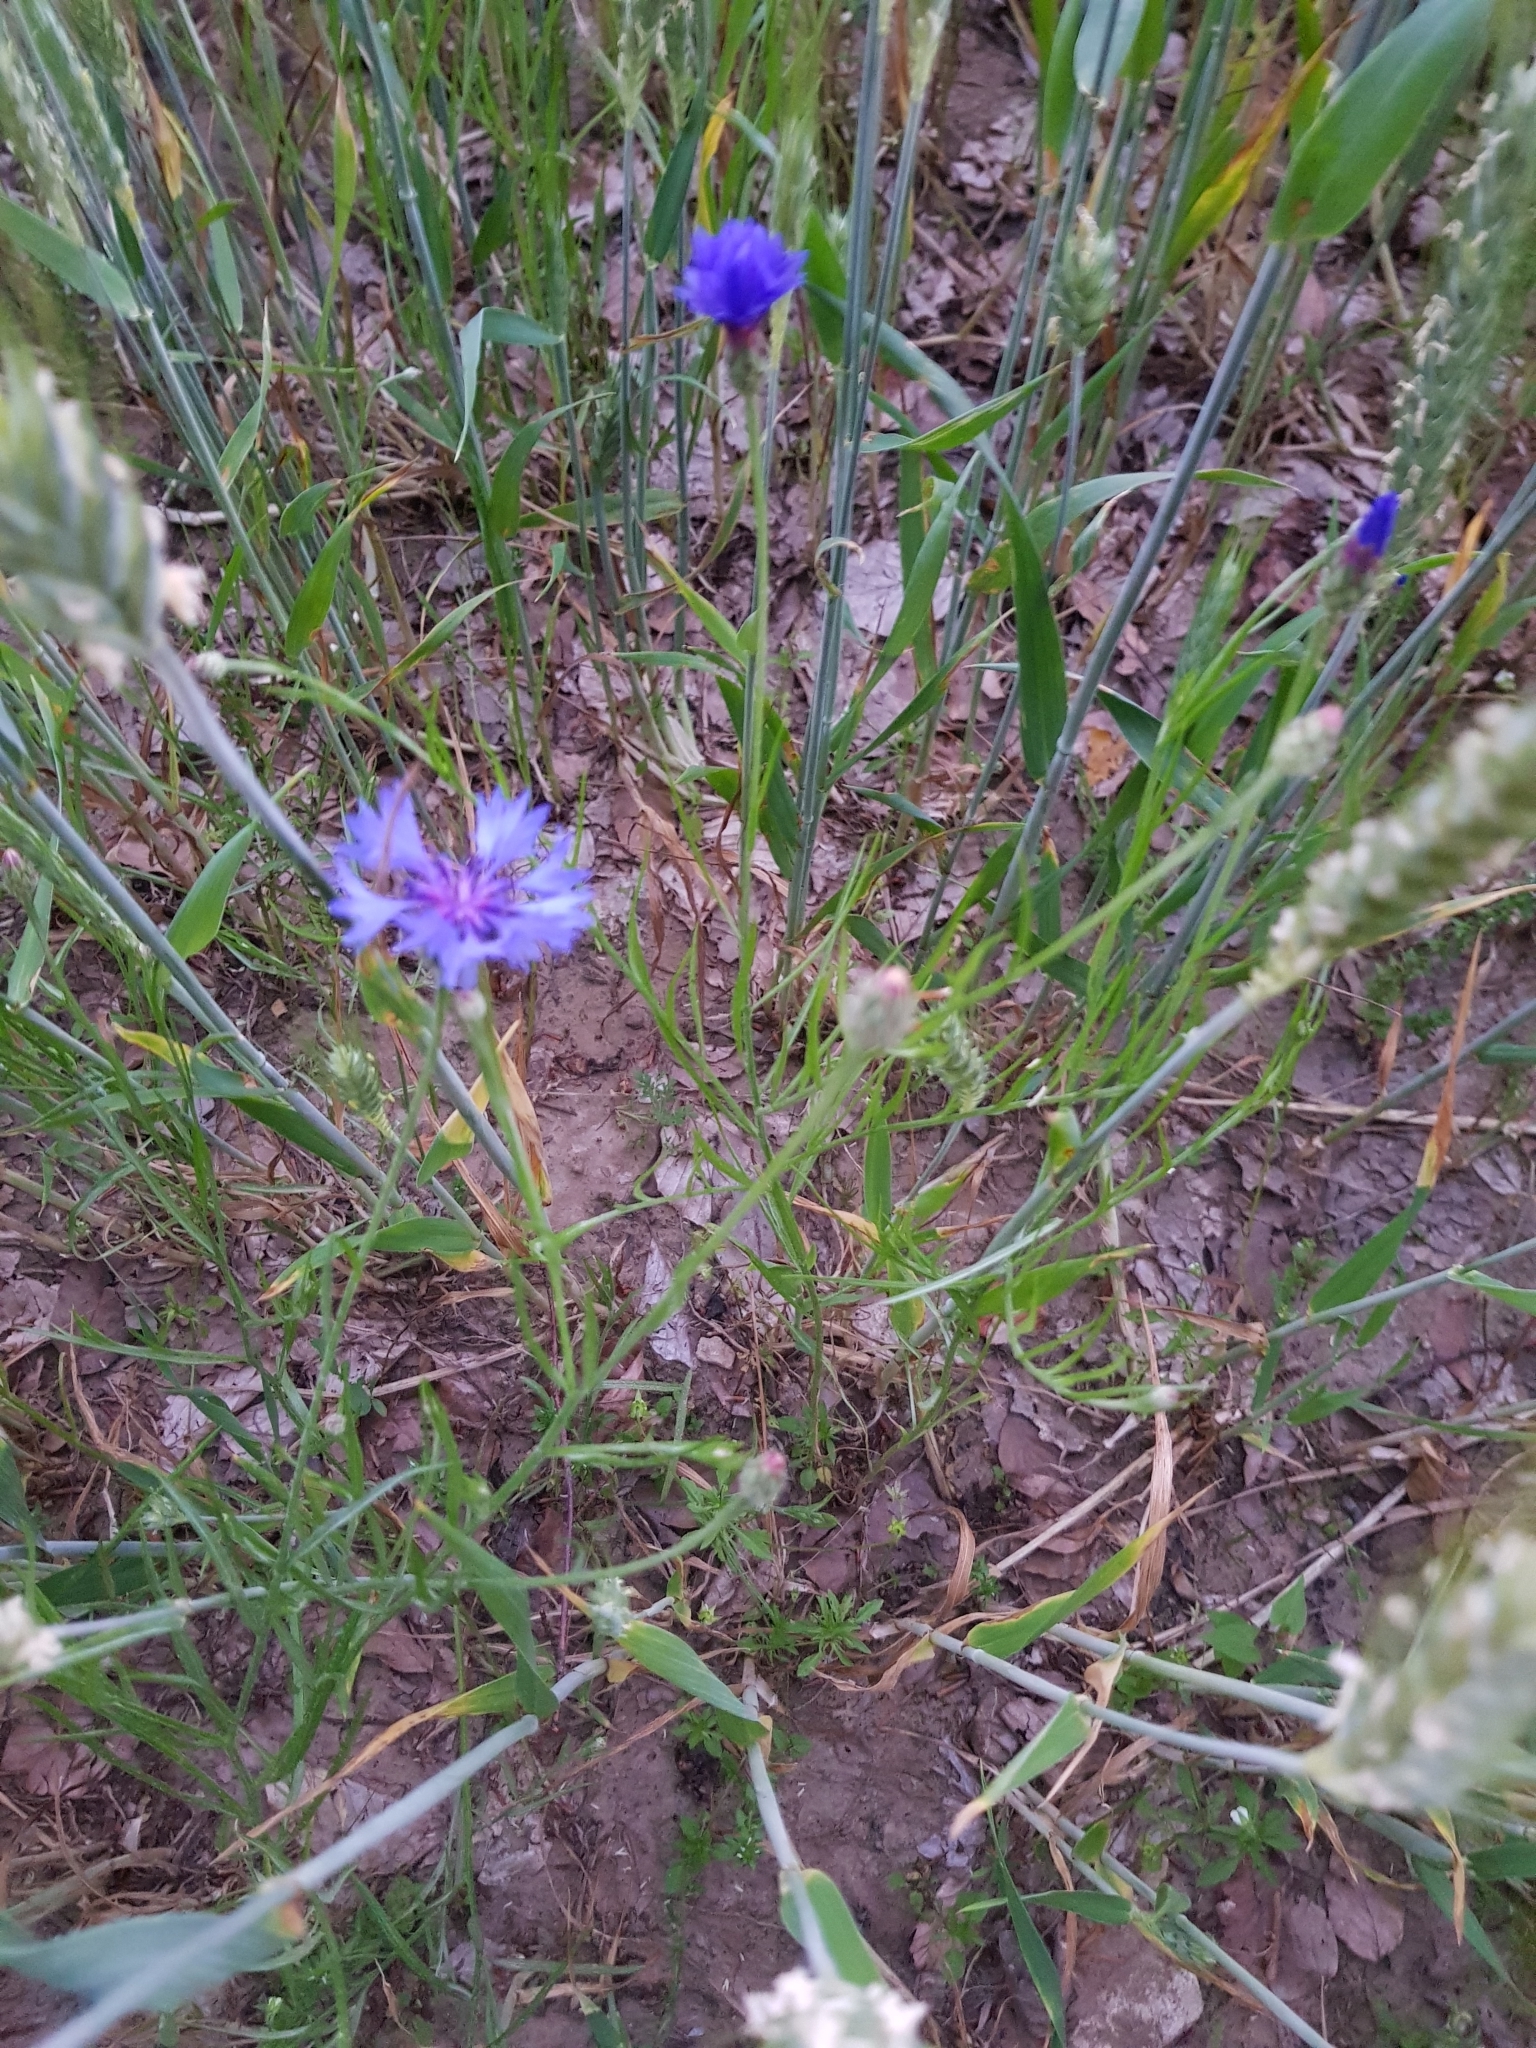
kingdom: Plantae
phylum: Tracheophyta
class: Magnoliopsida
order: Asterales
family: Asteraceae
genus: Centaurea
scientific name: Centaurea cyanus
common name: Cornflower
